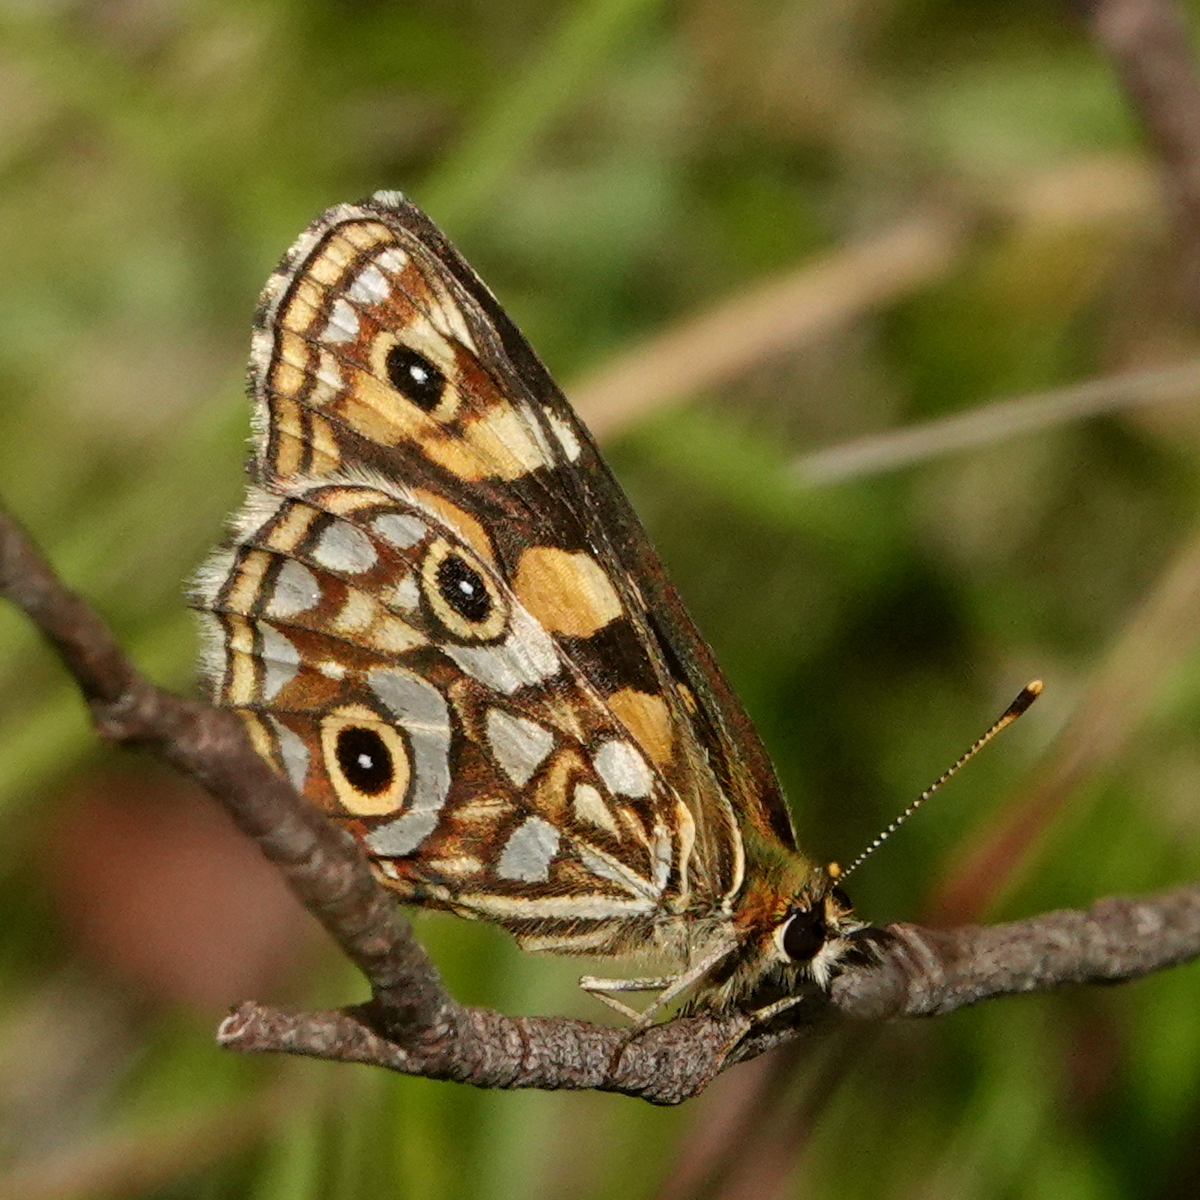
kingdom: Animalia
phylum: Arthropoda
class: Insecta
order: Lepidoptera
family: Nymphalidae
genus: Oreixenica
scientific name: Oreixenica lathoniella
